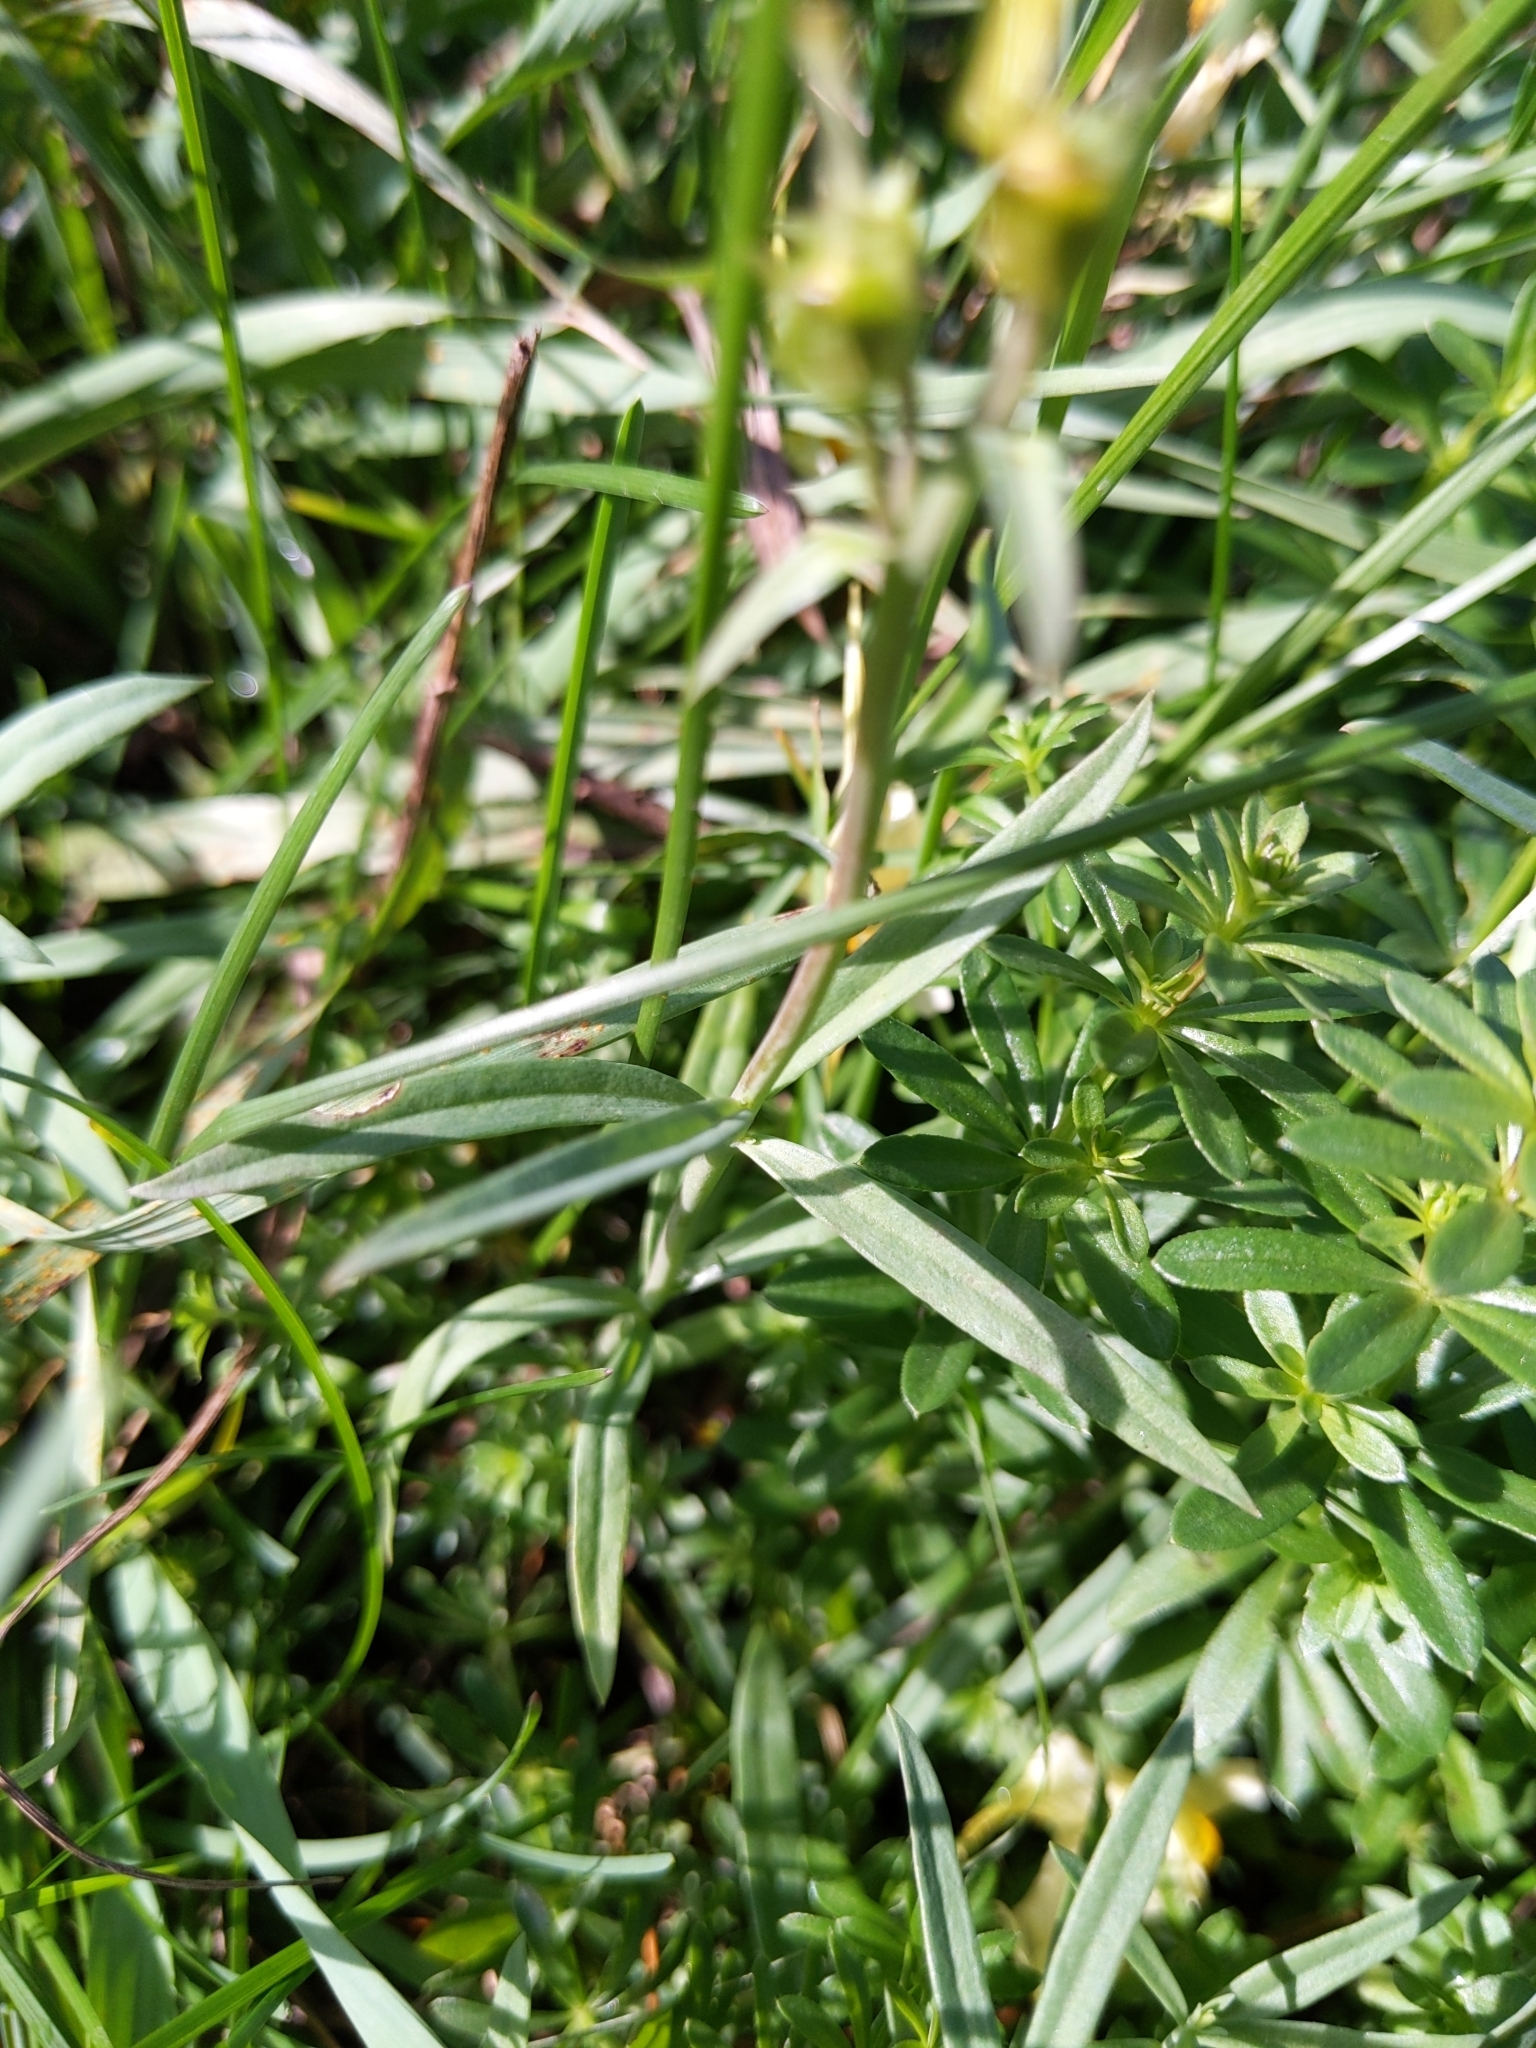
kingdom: Plantae
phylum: Tracheophyta
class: Magnoliopsida
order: Lamiales
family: Plantaginaceae
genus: Linaria
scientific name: Linaria vulgaris
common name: Butter and eggs
